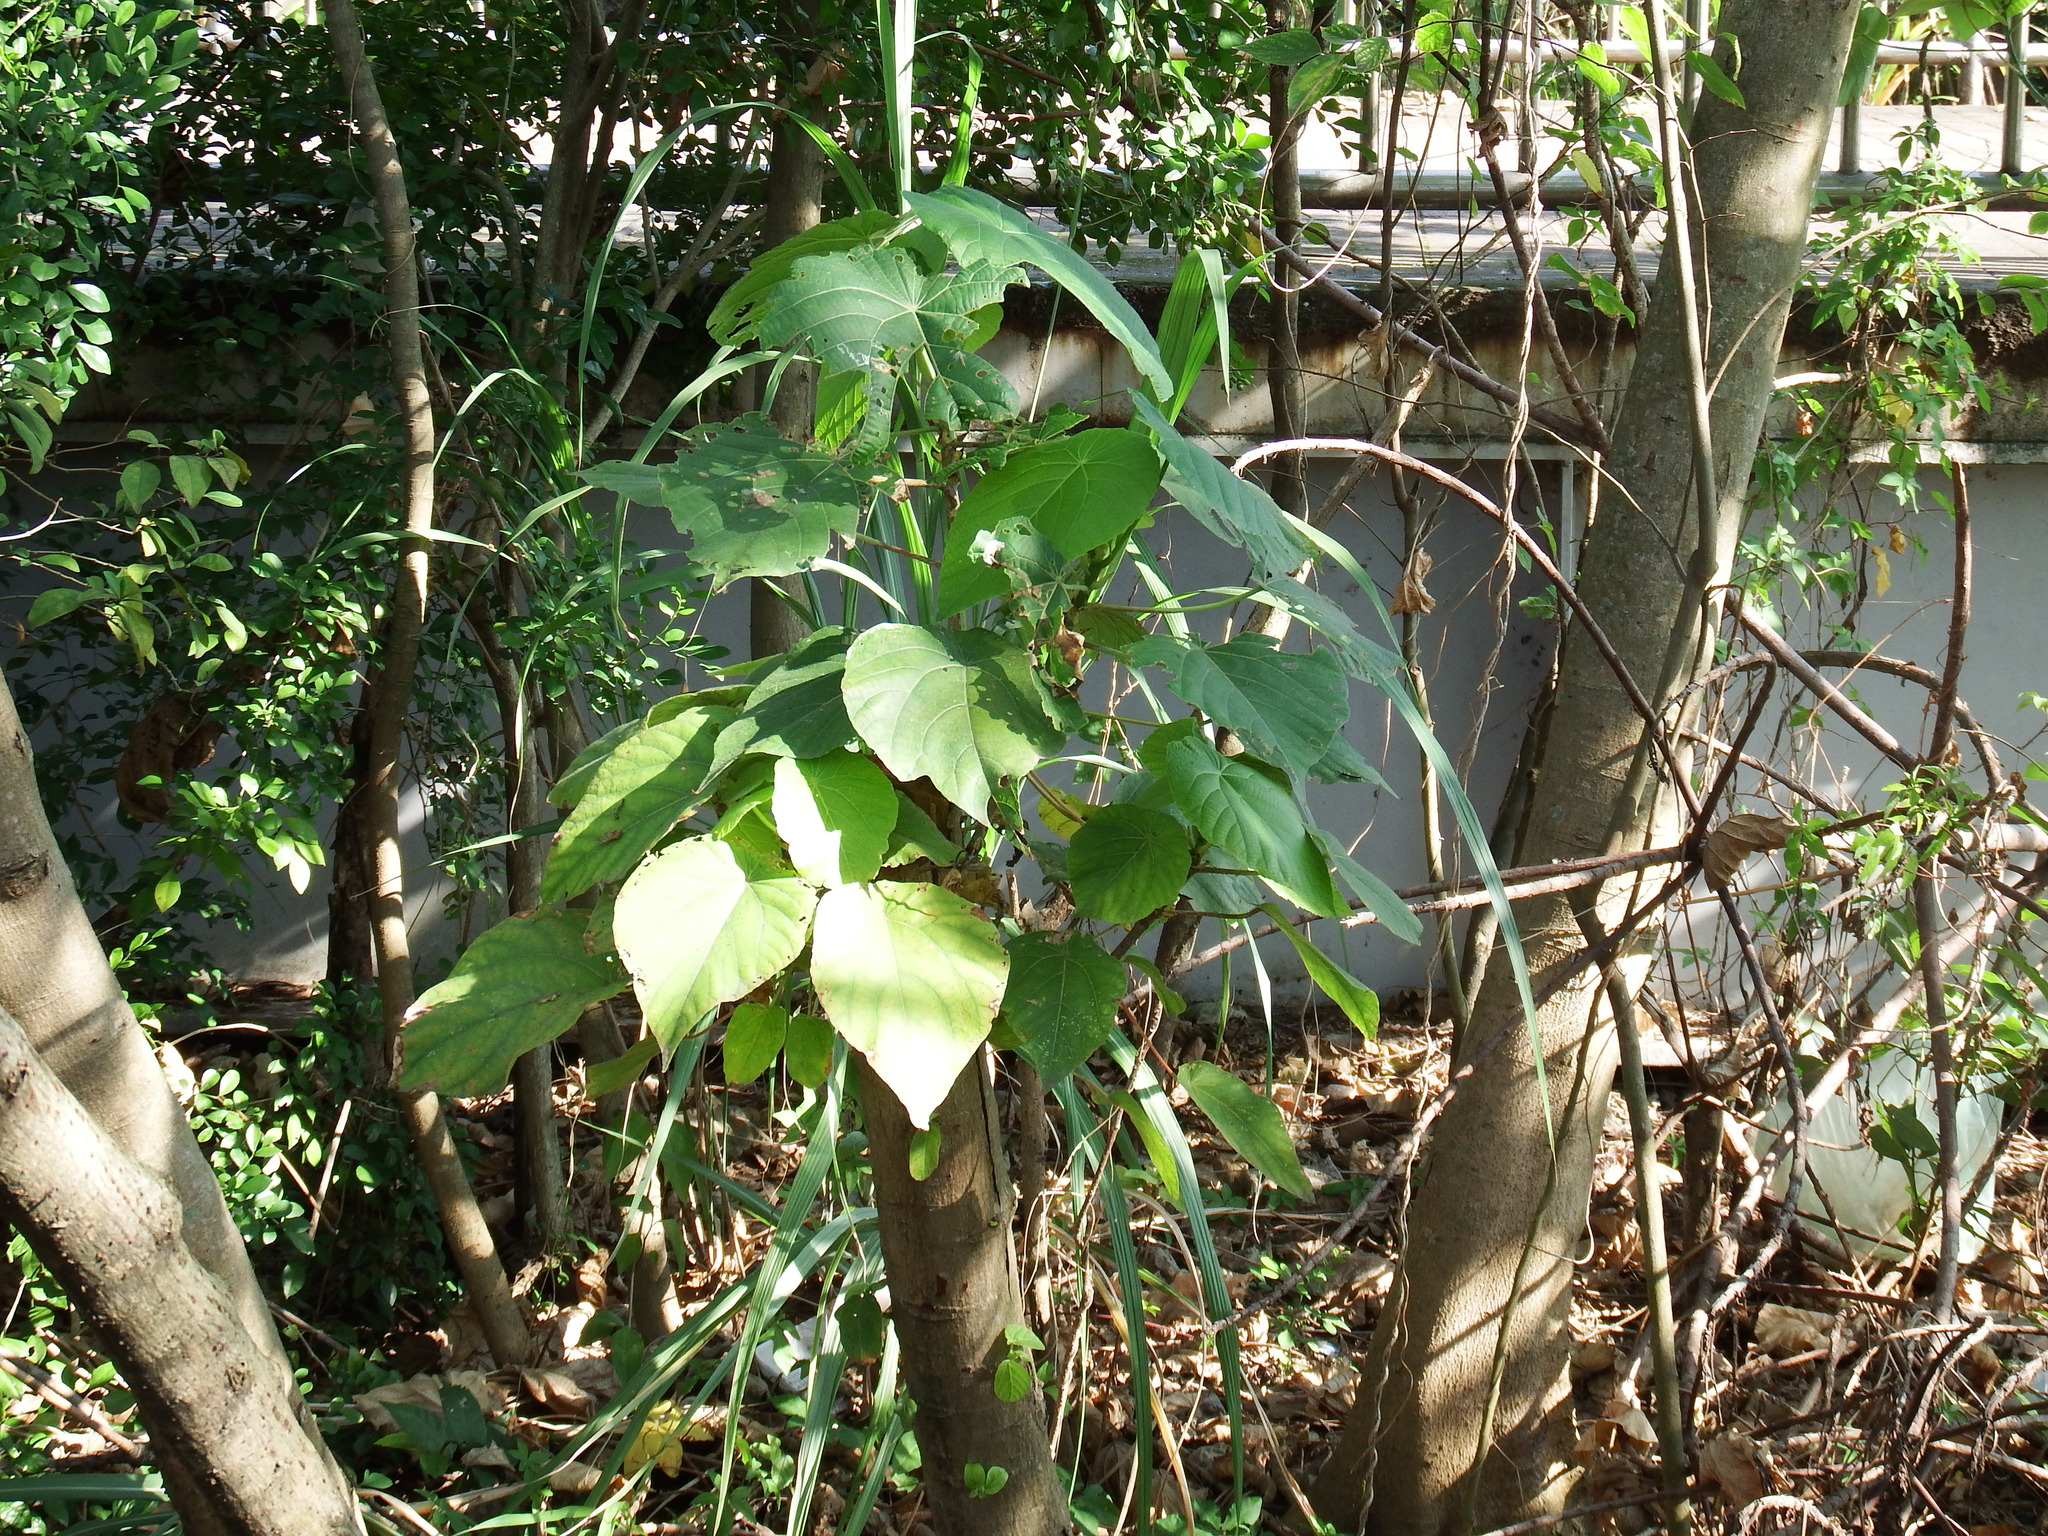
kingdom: Plantae
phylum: Tracheophyta
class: Magnoliopsida
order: Malpighiales
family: Euphorbiaceae
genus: Macaranga
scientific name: Macaranga tanarius
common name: Parasol leaf tree
